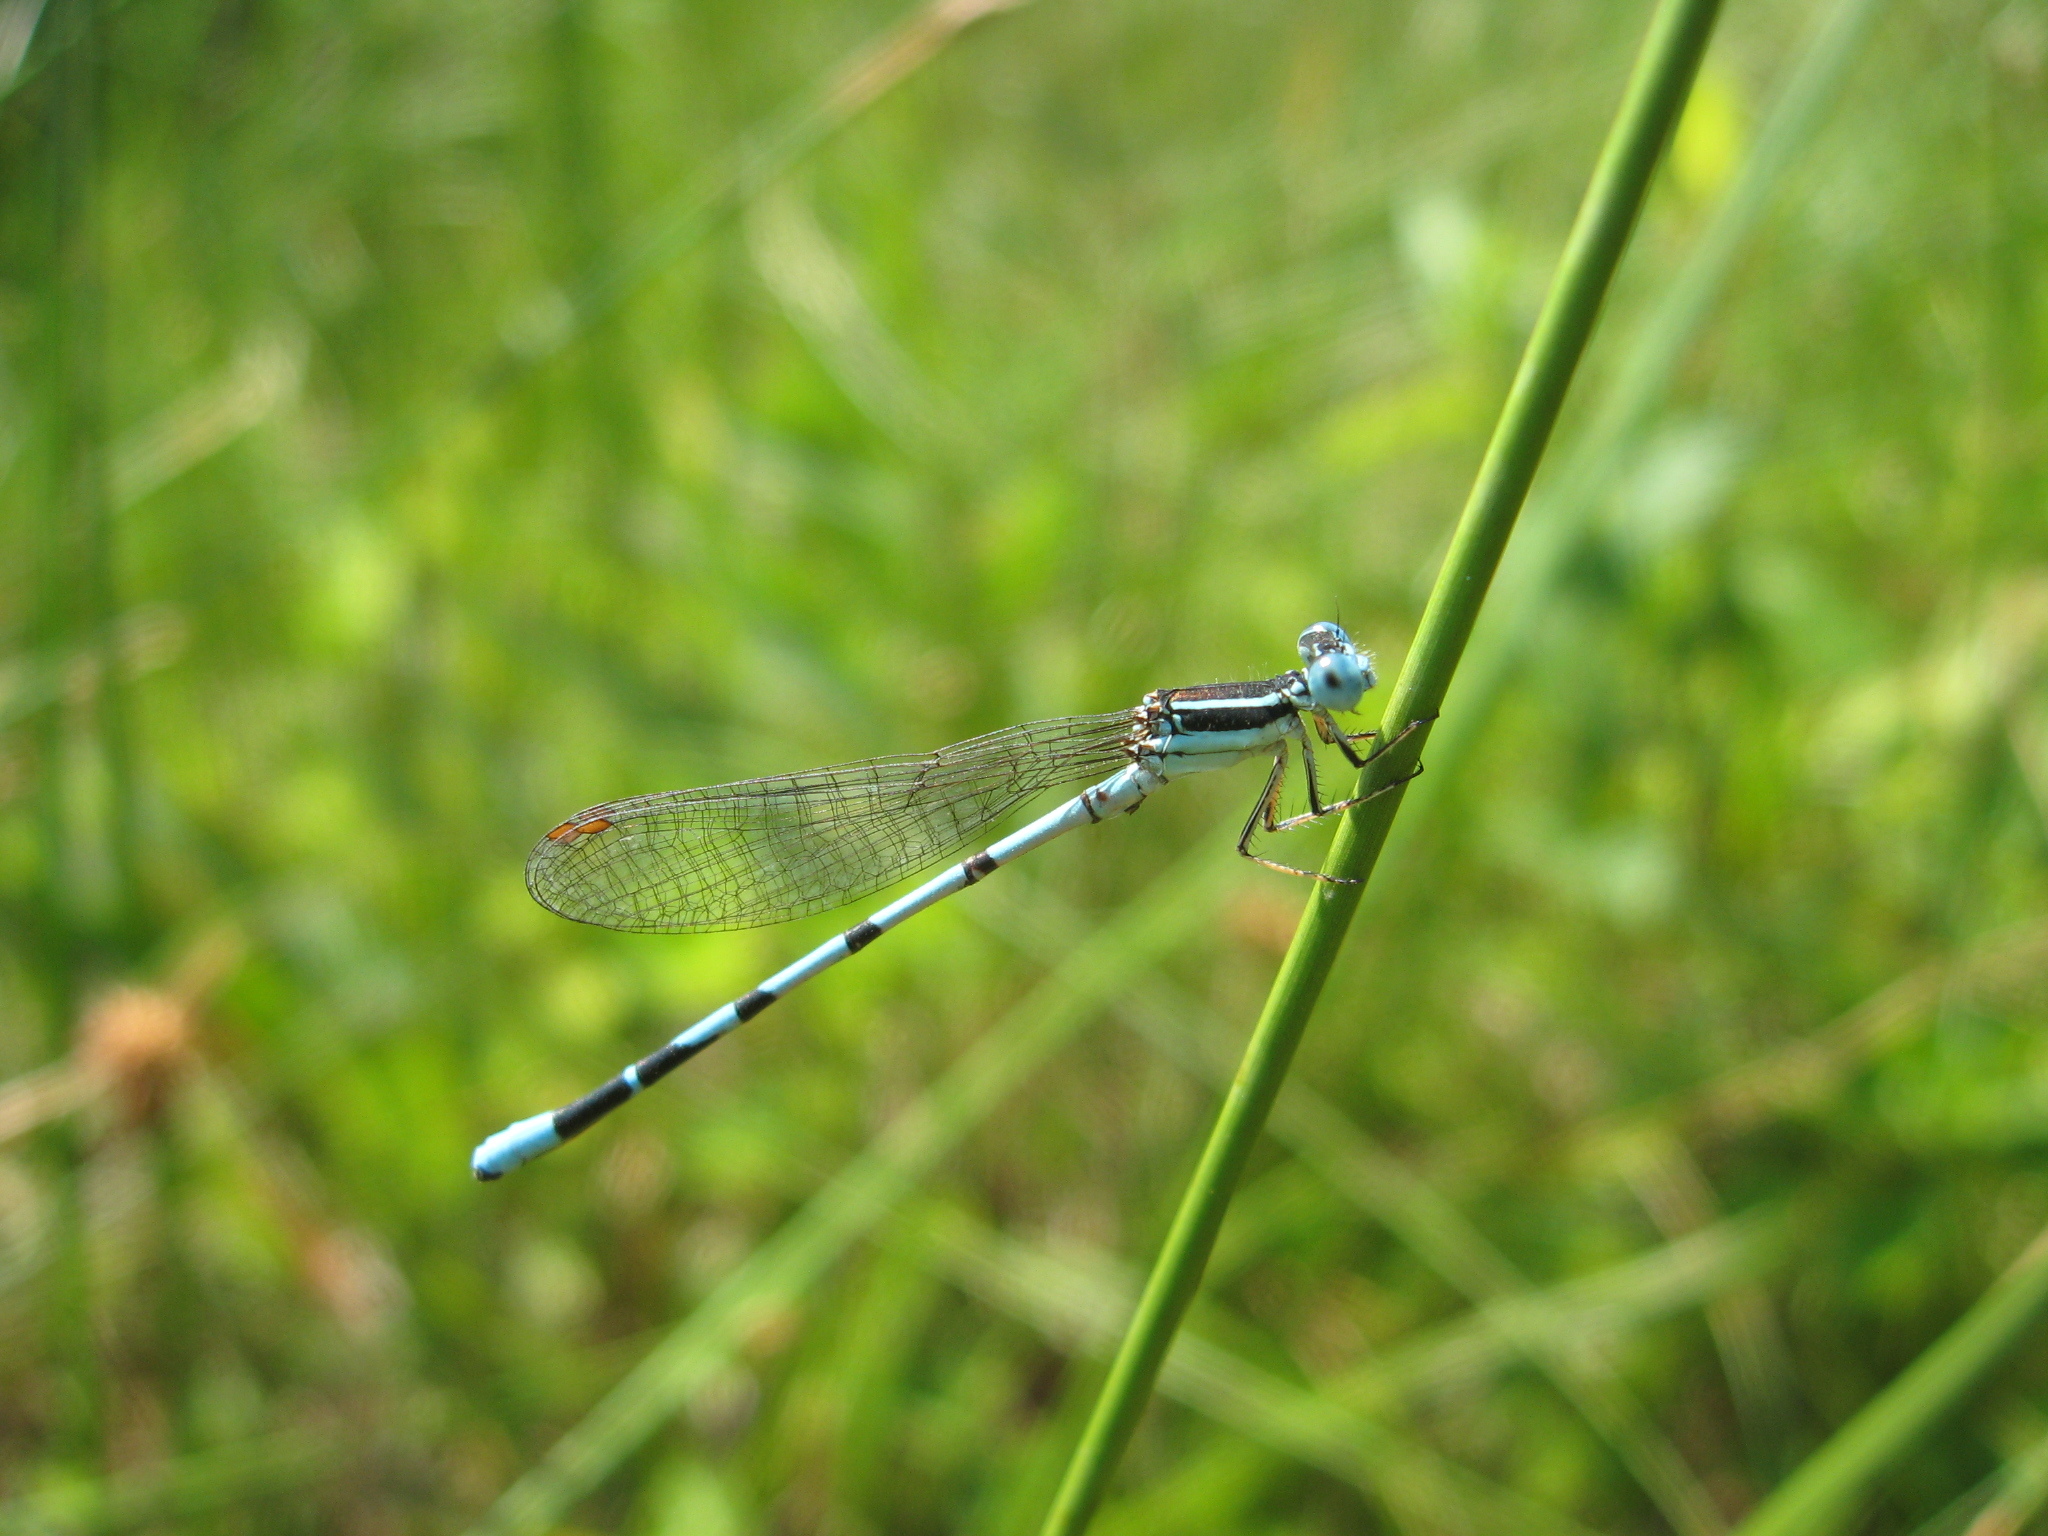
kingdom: Animalia
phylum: Arthropoda
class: Insecta
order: Odonata
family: Coenagrionidae
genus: Argia
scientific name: Argia bipunctulata
